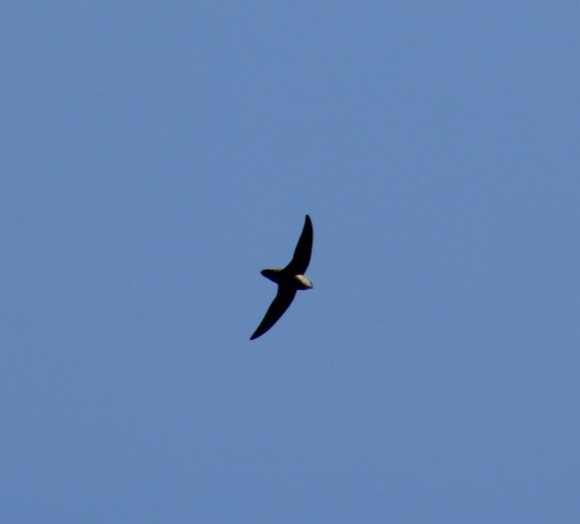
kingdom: Animalia
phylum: Chordata
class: Aves
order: Apodiformes
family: Apodidae
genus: Chaetura
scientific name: Chaetura pelagica
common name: Chimney swift
